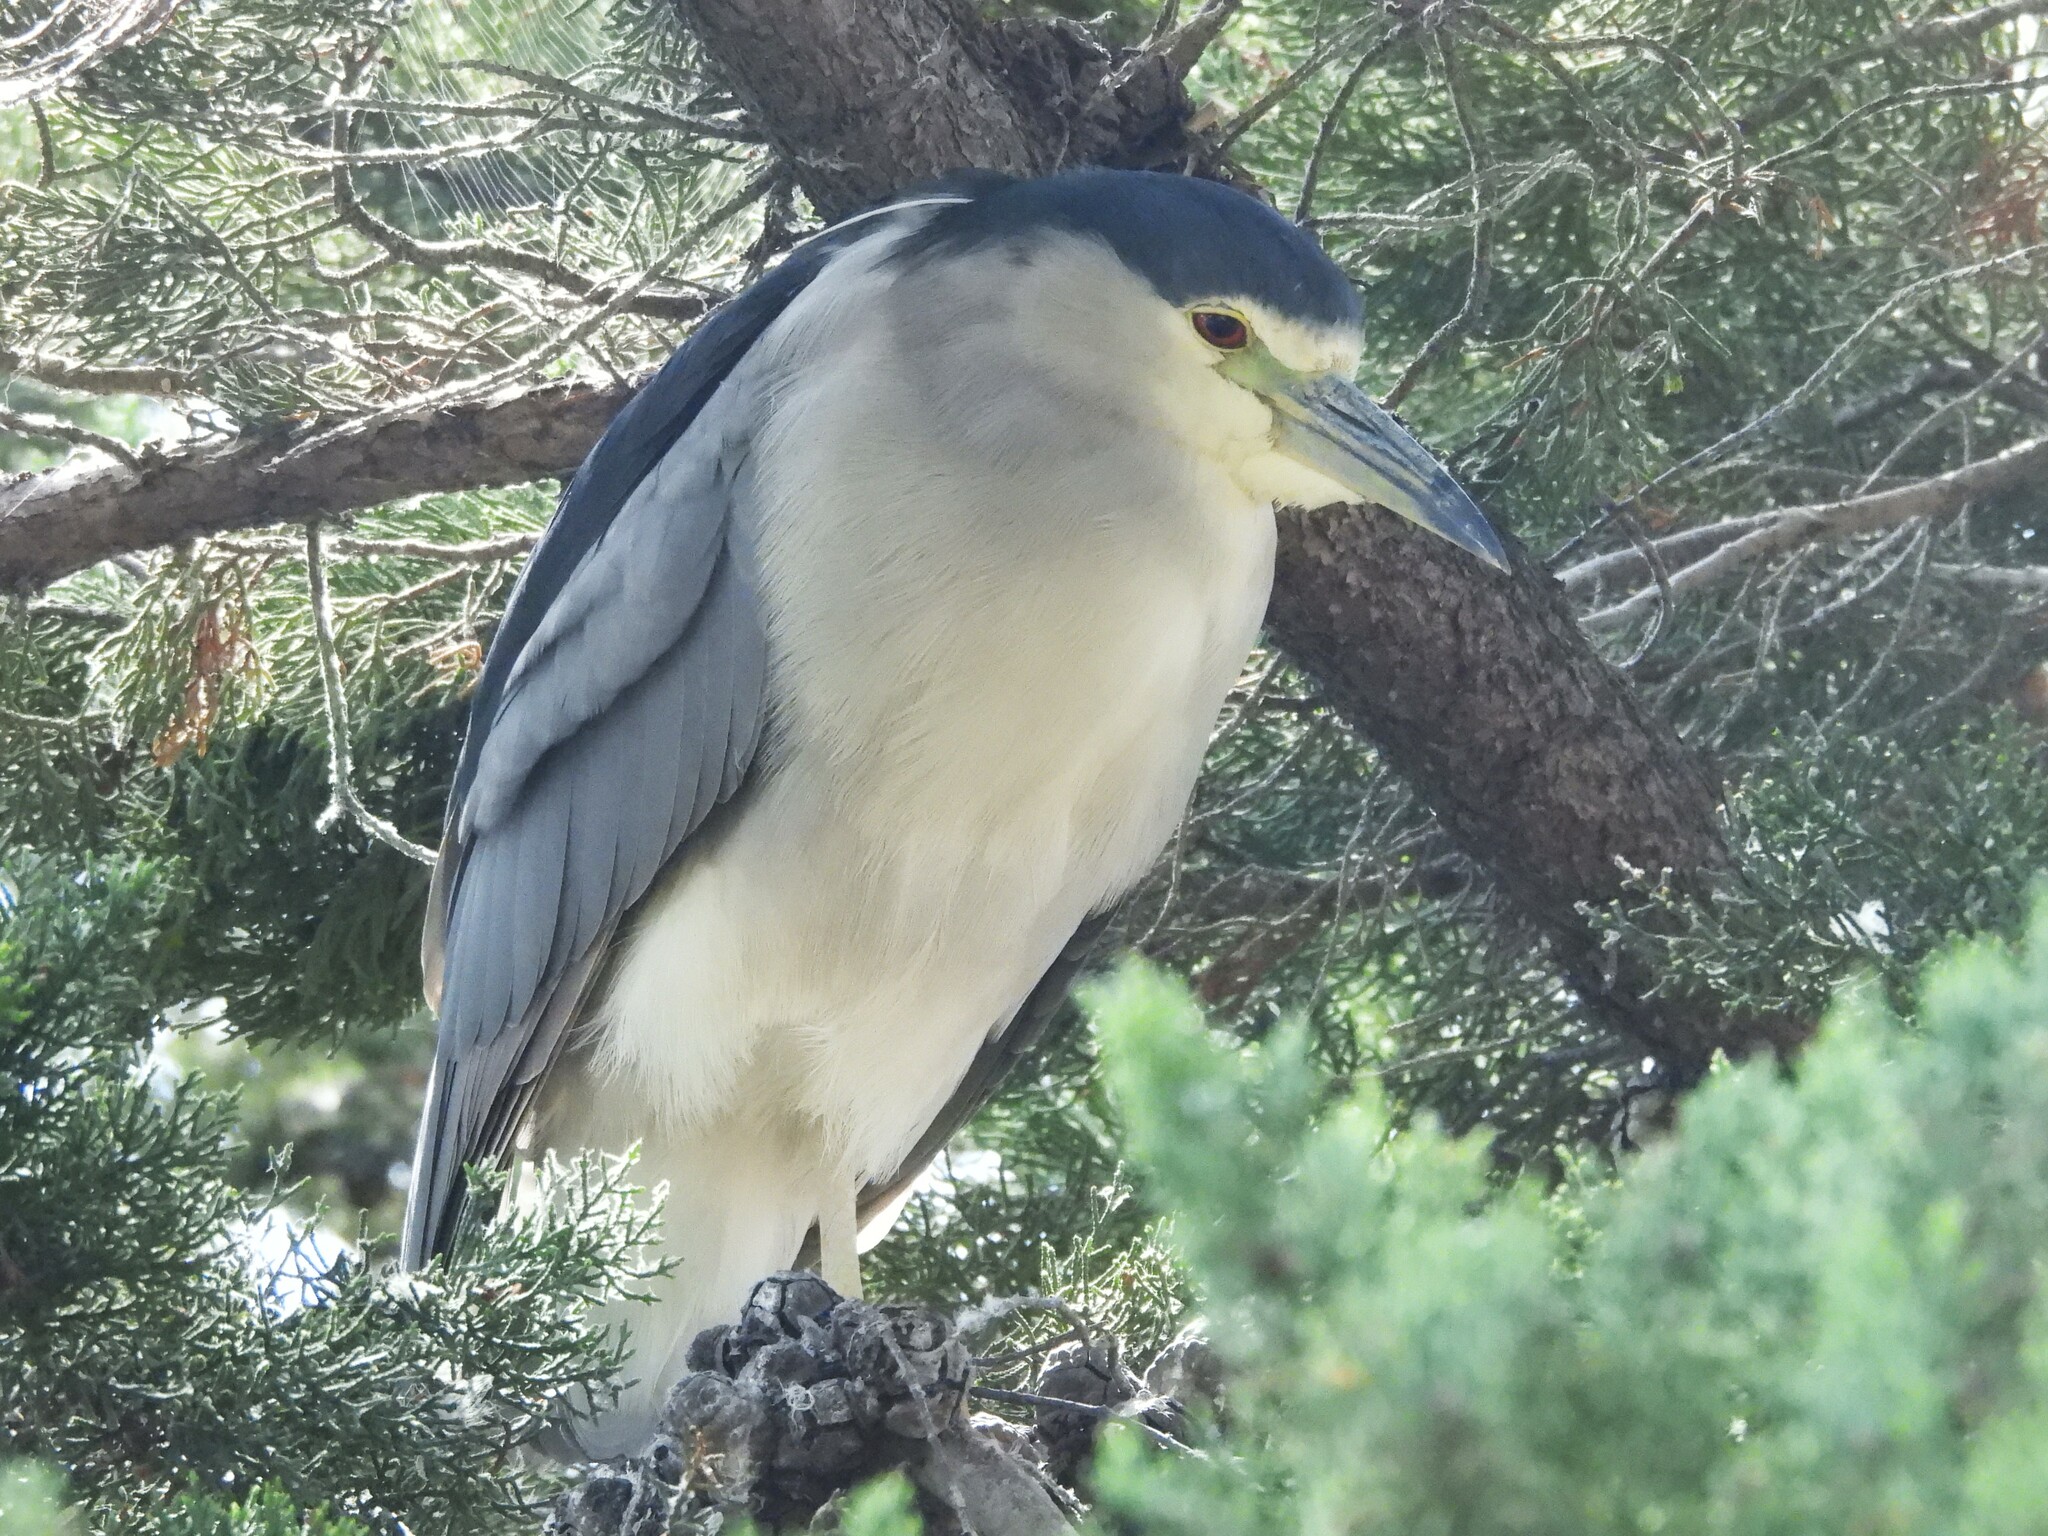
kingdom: Animalia
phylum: Chordata
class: Aves
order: Pelecaniformes
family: Ardeidae
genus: Nycticorax
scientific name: Nycticorax nycticorax
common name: Black-crowned night heron
